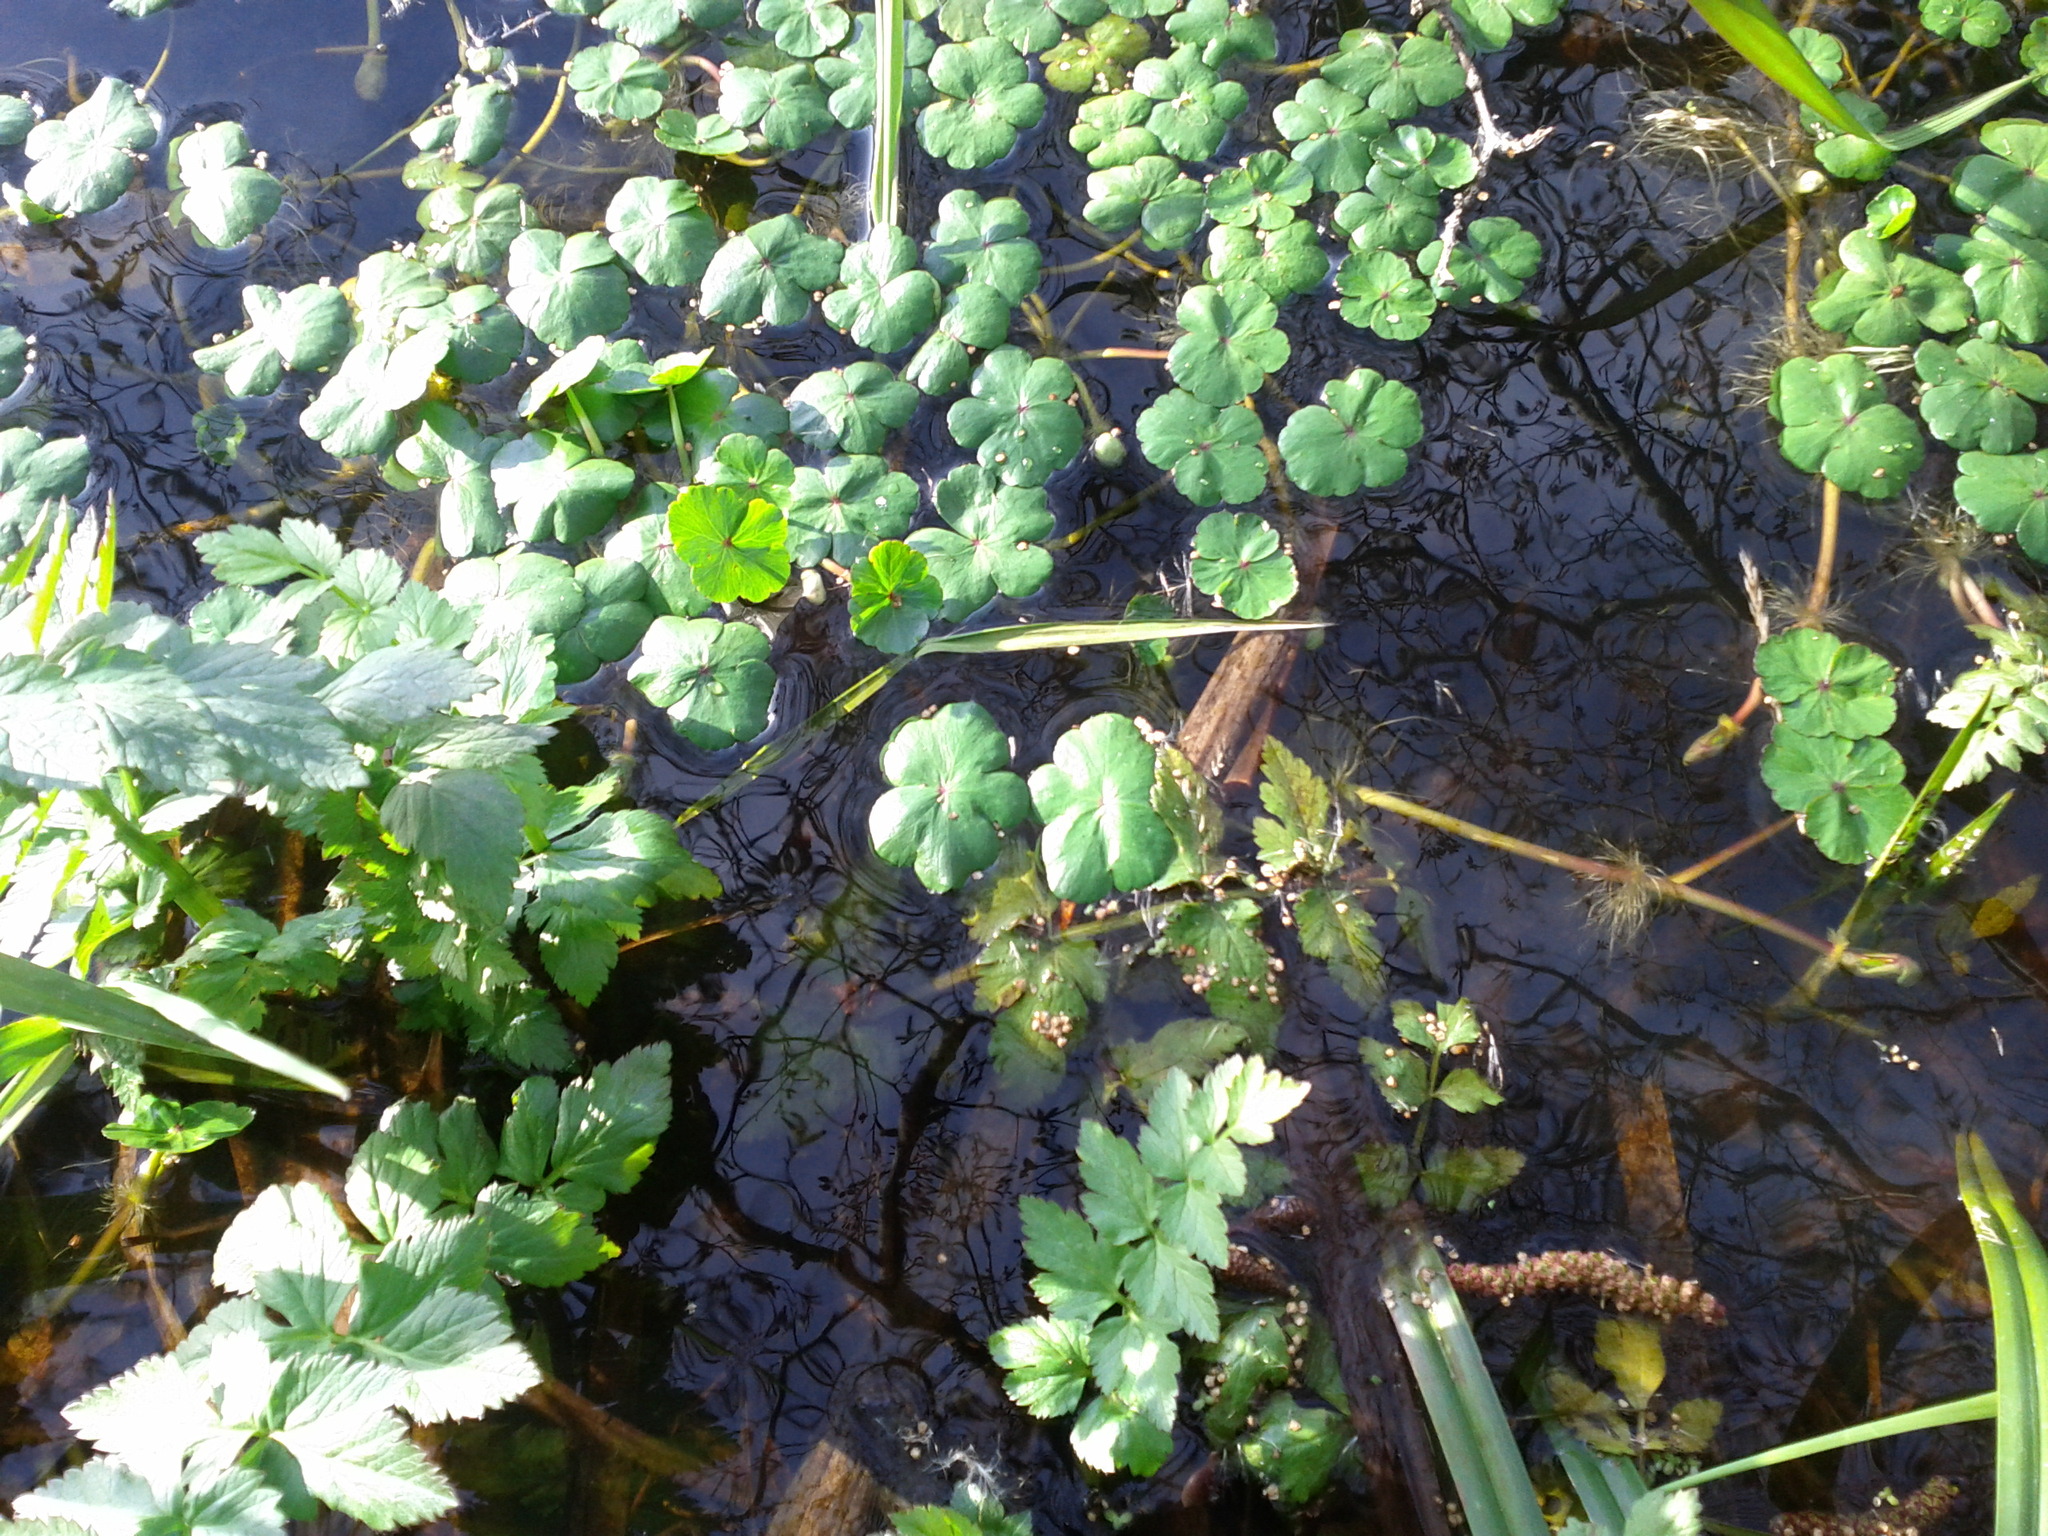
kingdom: Plantae
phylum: Tracheophyta
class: Magnoliopsida
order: Brassicales
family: Brassicaceae
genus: Nasturtium
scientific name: Nasturtium officinale
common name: Watercress
